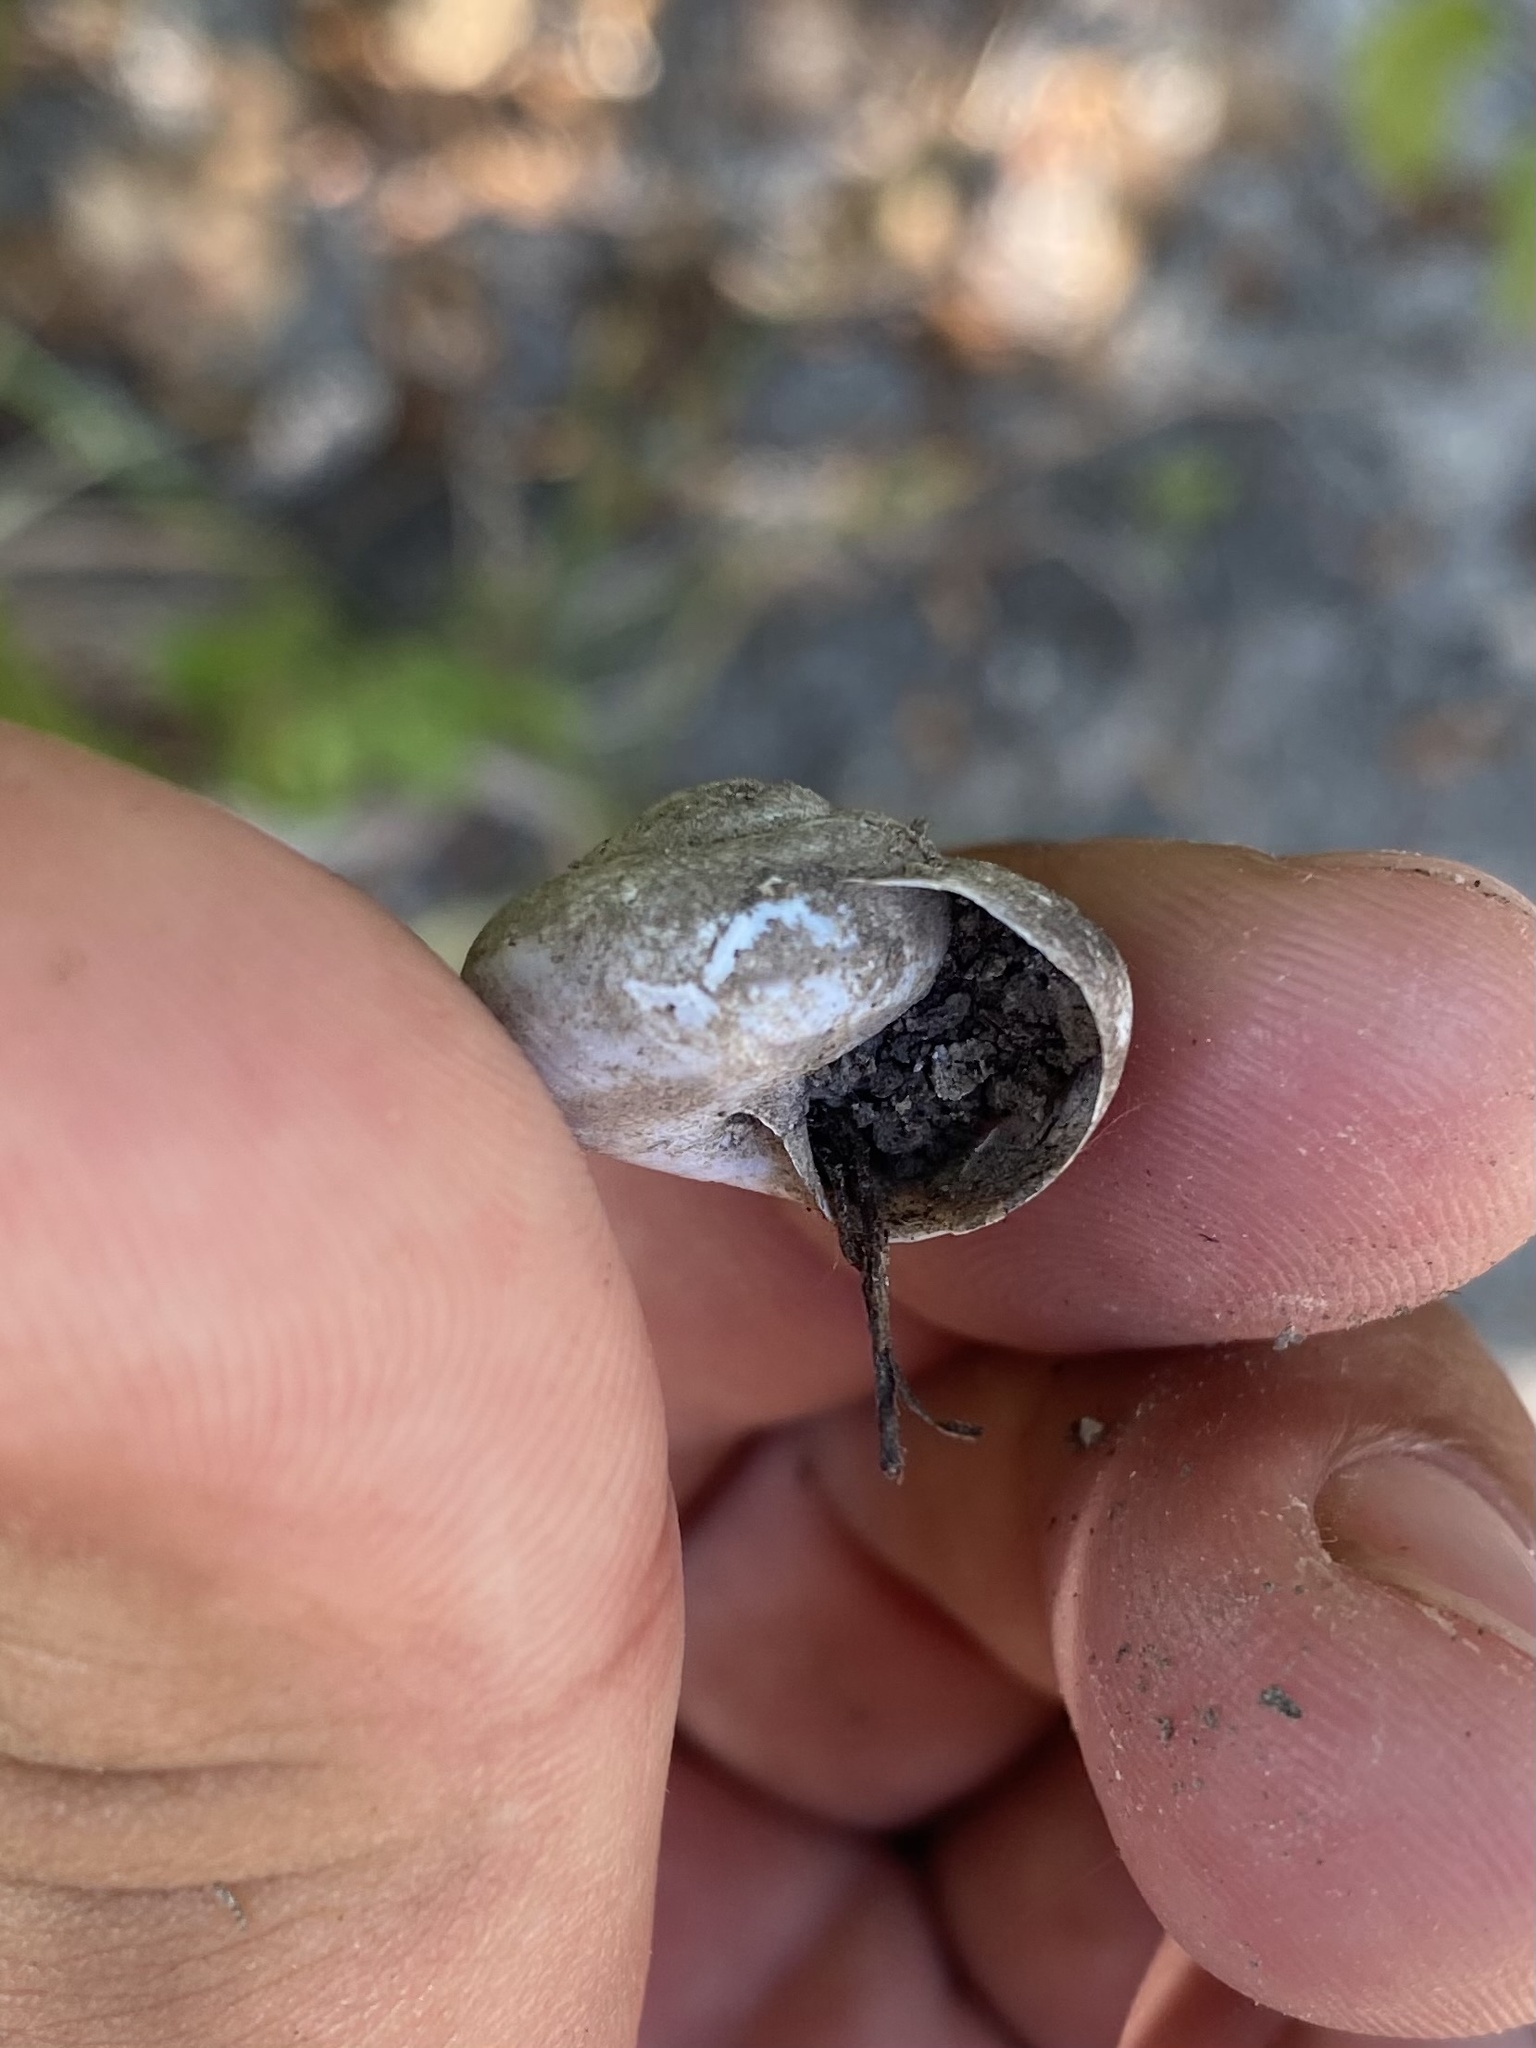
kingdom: Animalia
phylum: Mollusca
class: Gastropoda
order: Stylommatophora
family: Helicidae
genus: Caucasotachea
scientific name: Caucasotachea atrolabiata
